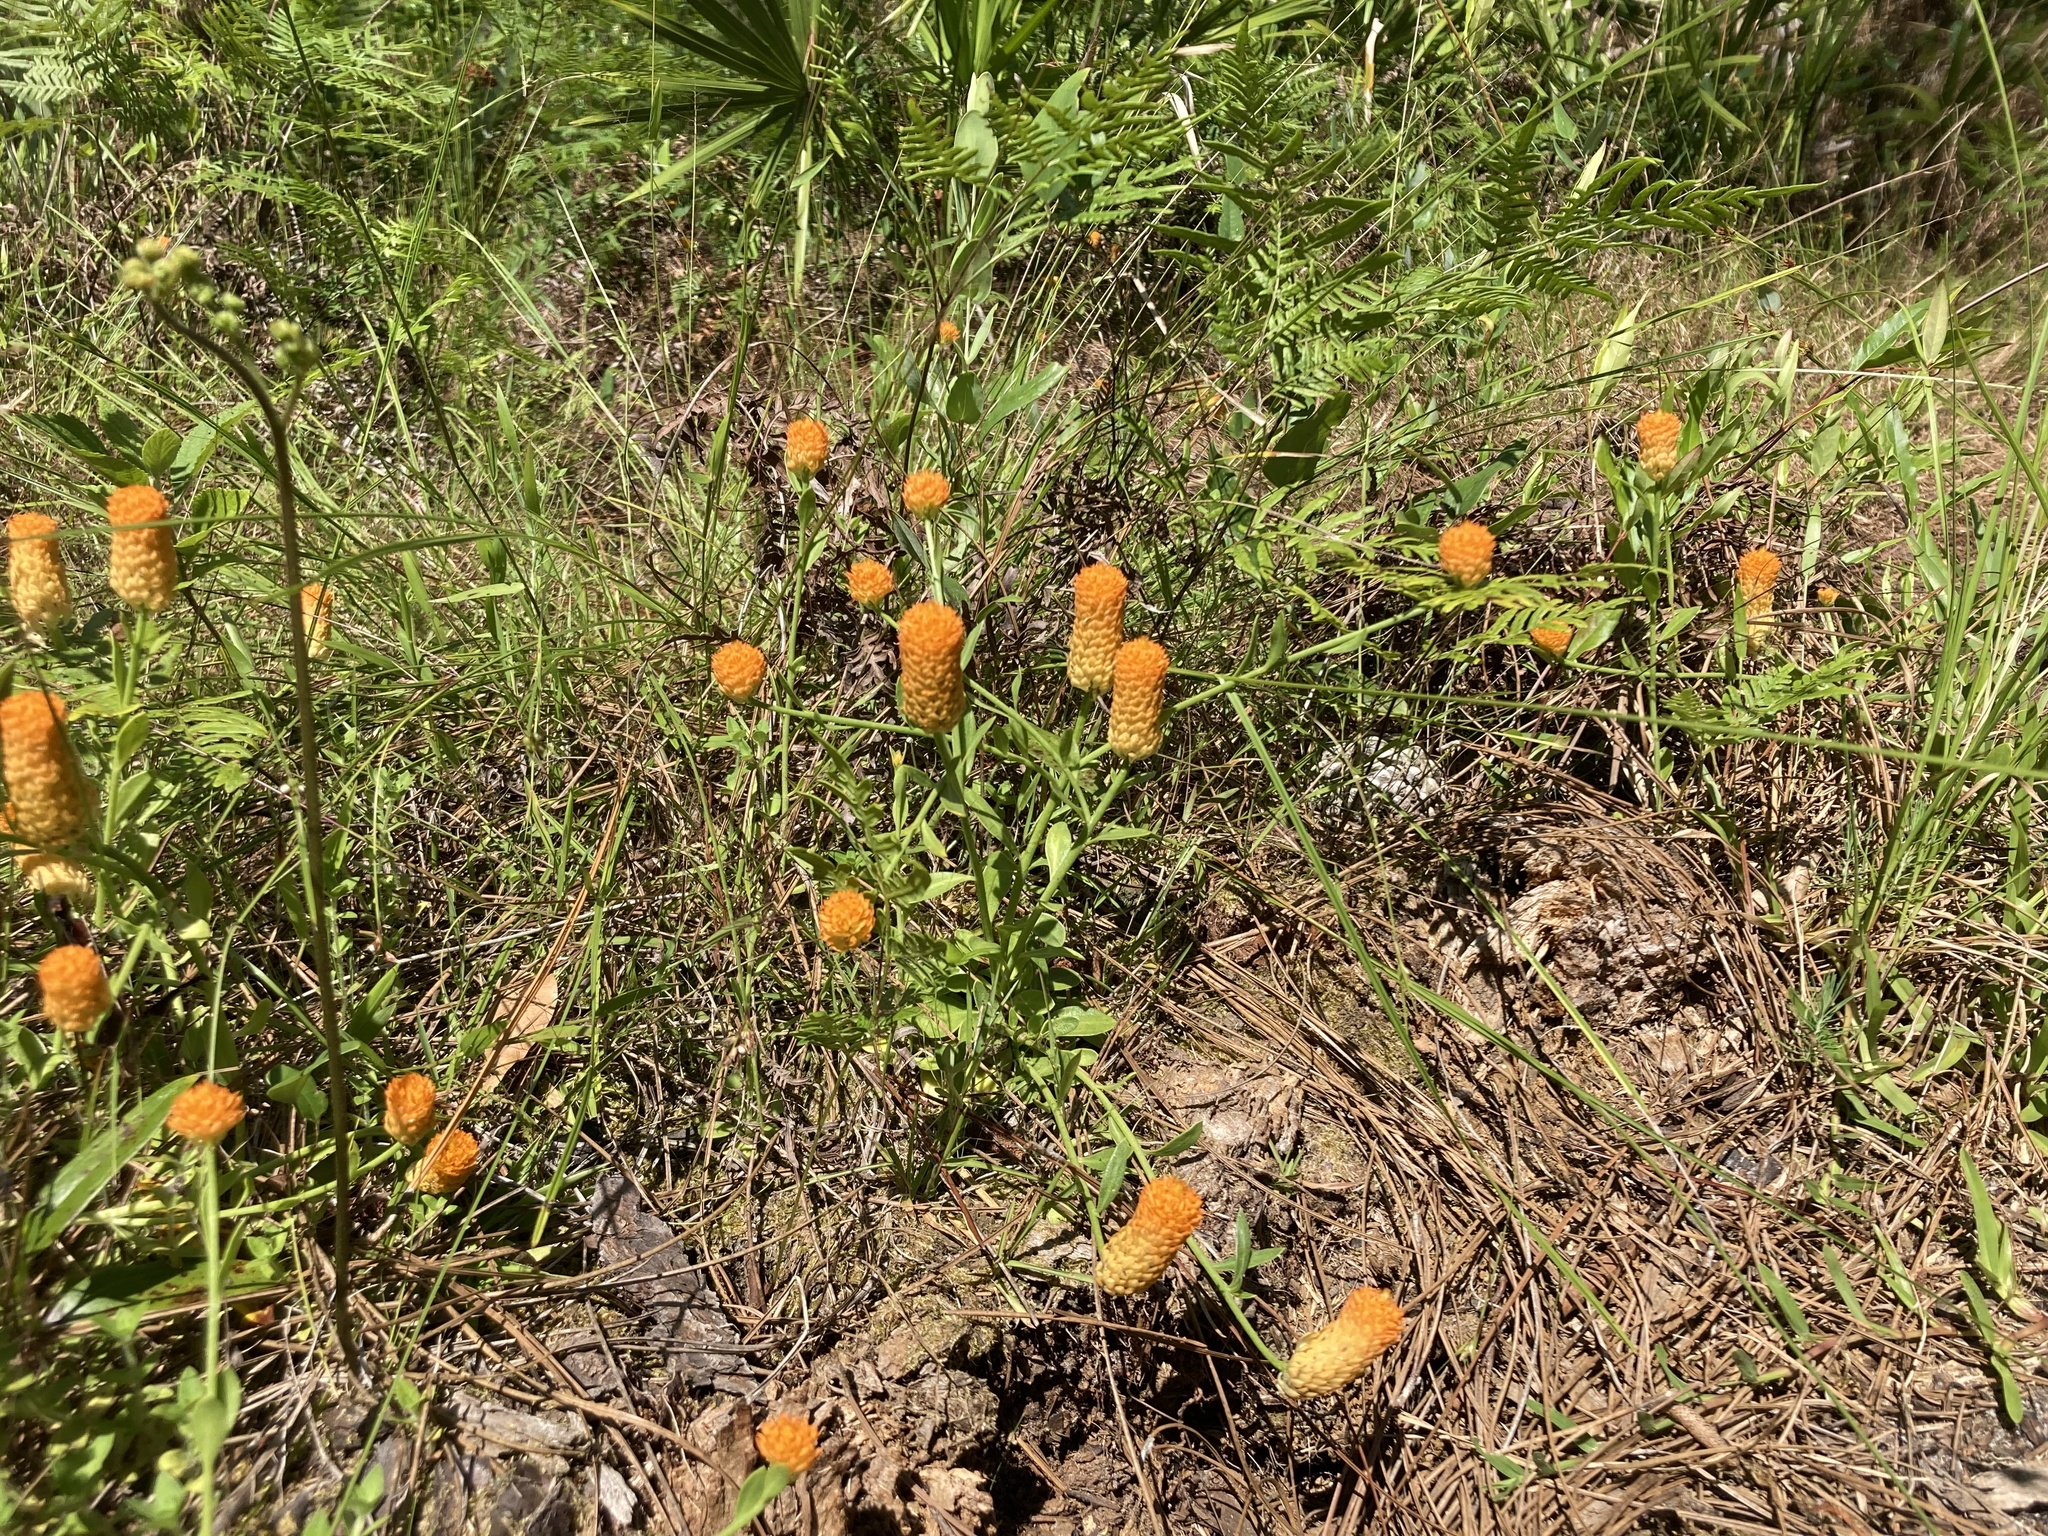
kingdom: Plantae
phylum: Tracheophyta
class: Magnoliopsida
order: Fabales
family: Polygalaceae
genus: Polygala
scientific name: Polygala lutea
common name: Orange milkwort
